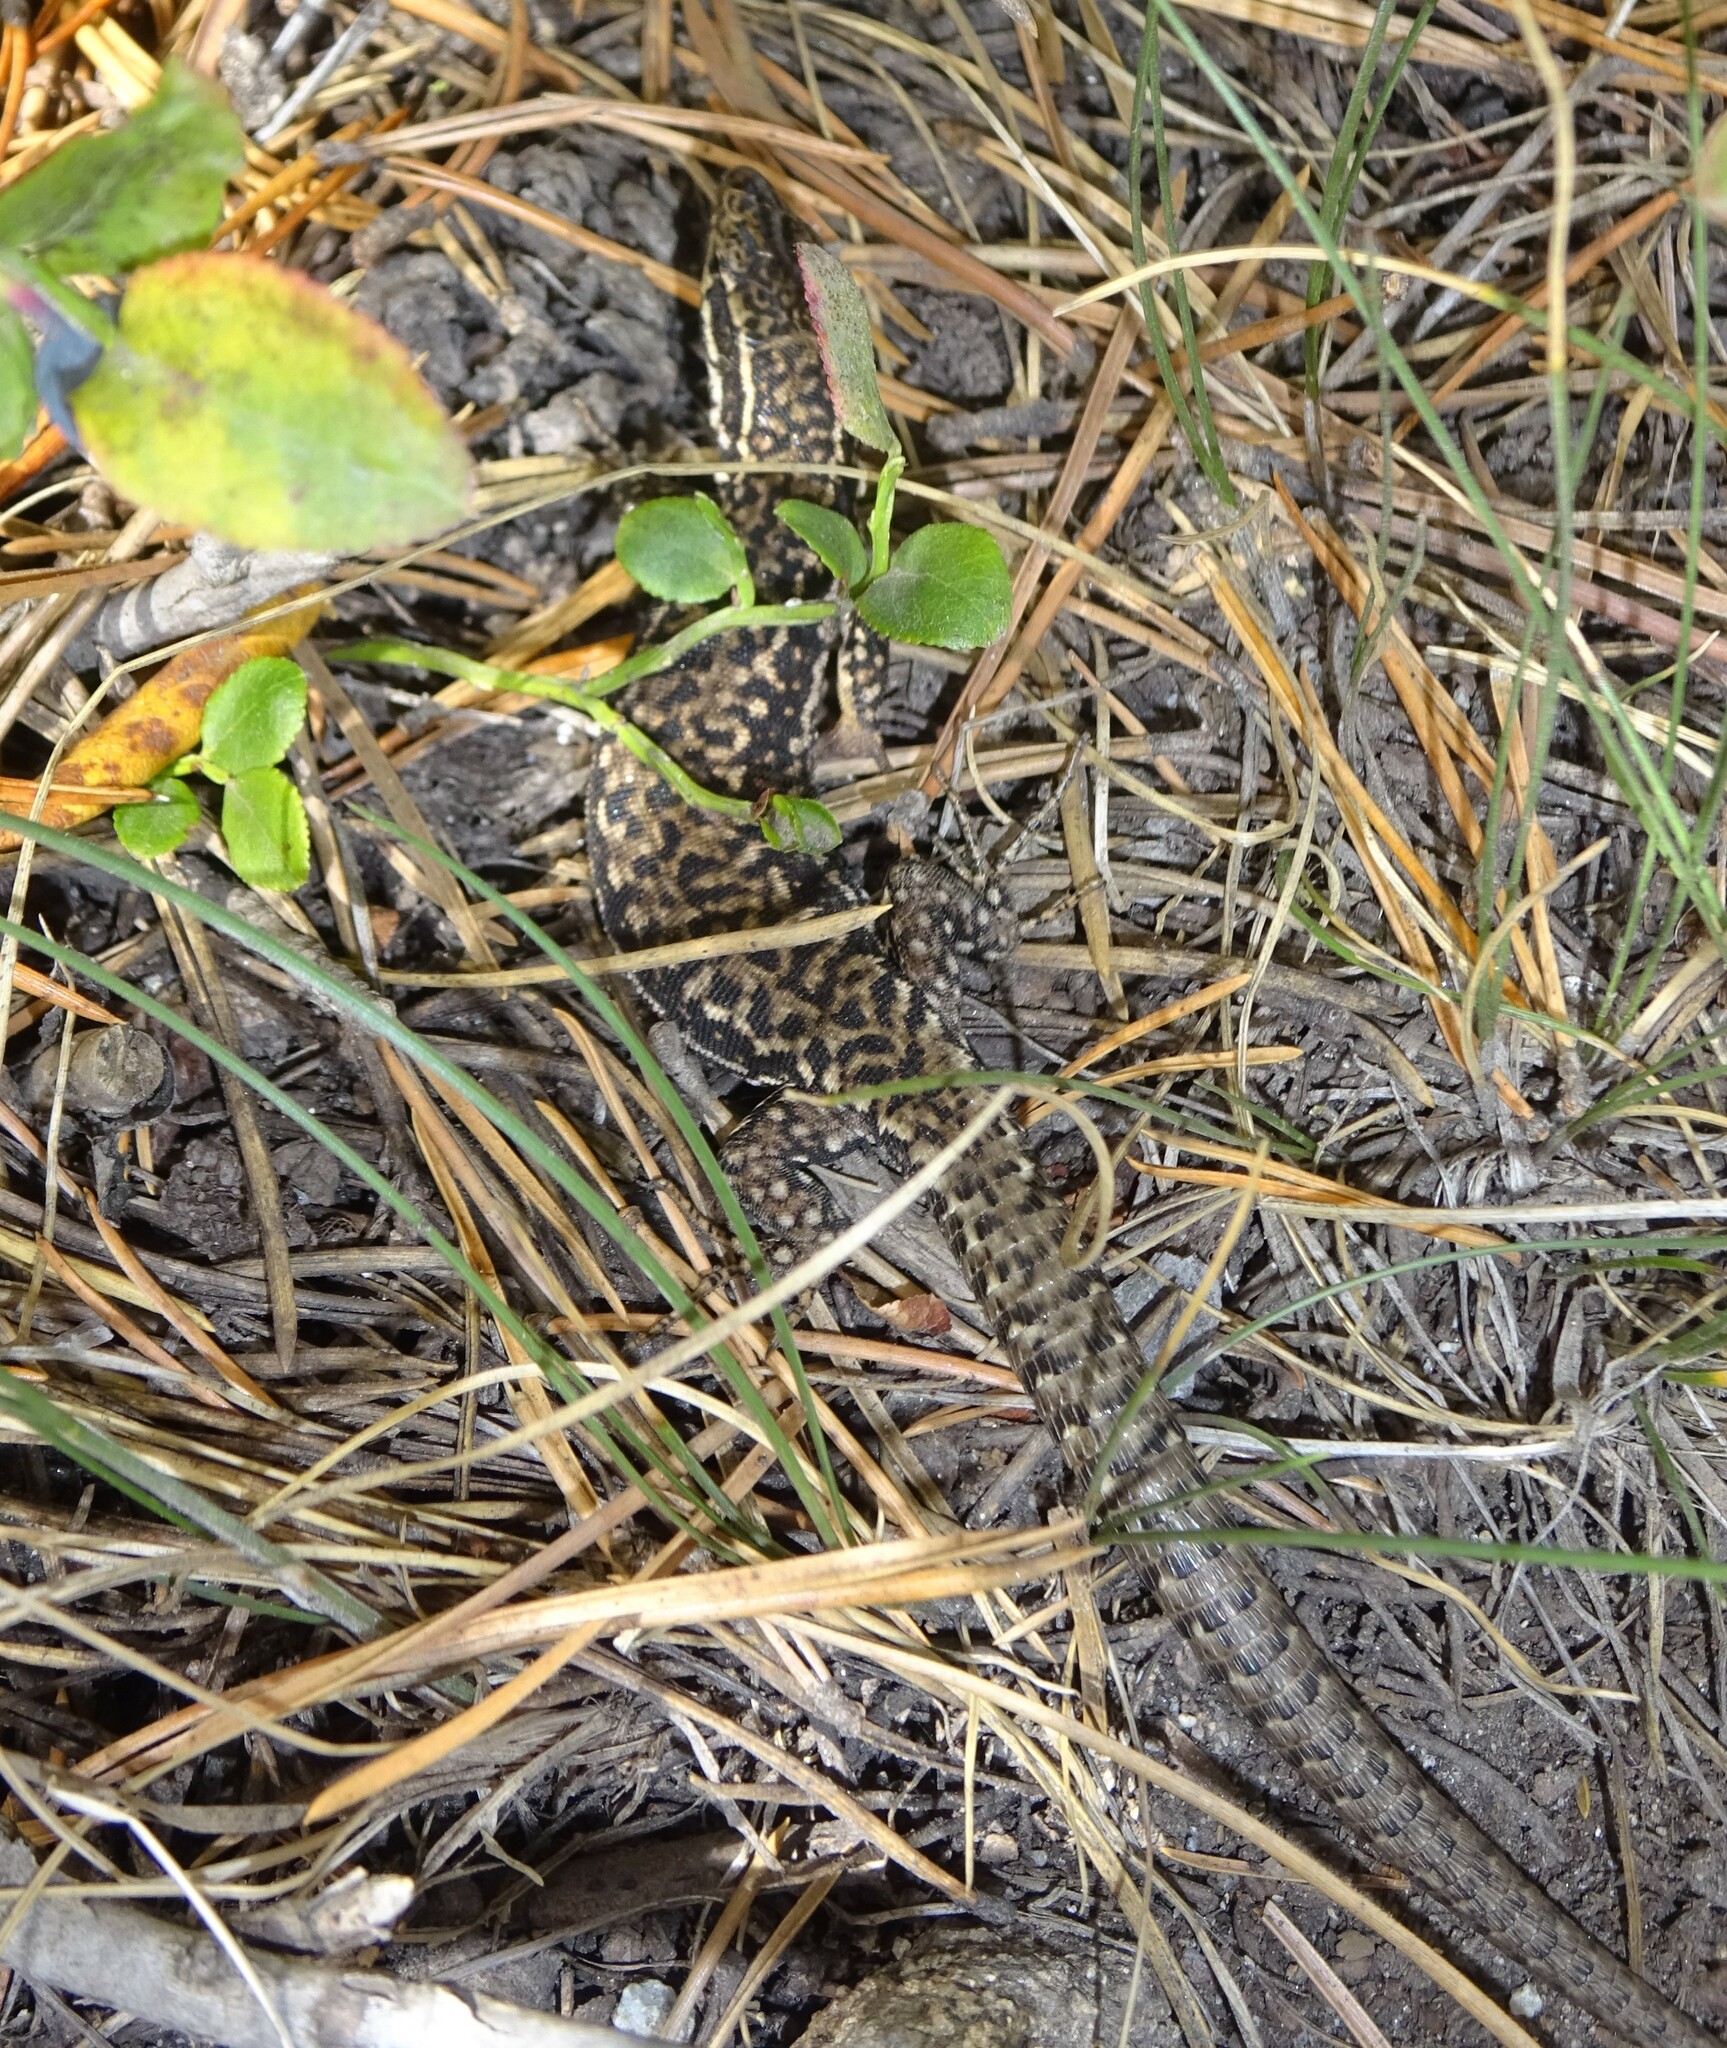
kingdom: Animalia
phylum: Chordata
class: Squamata
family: Lacertidae
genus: Podarcis
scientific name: Podarcis muralis
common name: Common wall lizard
